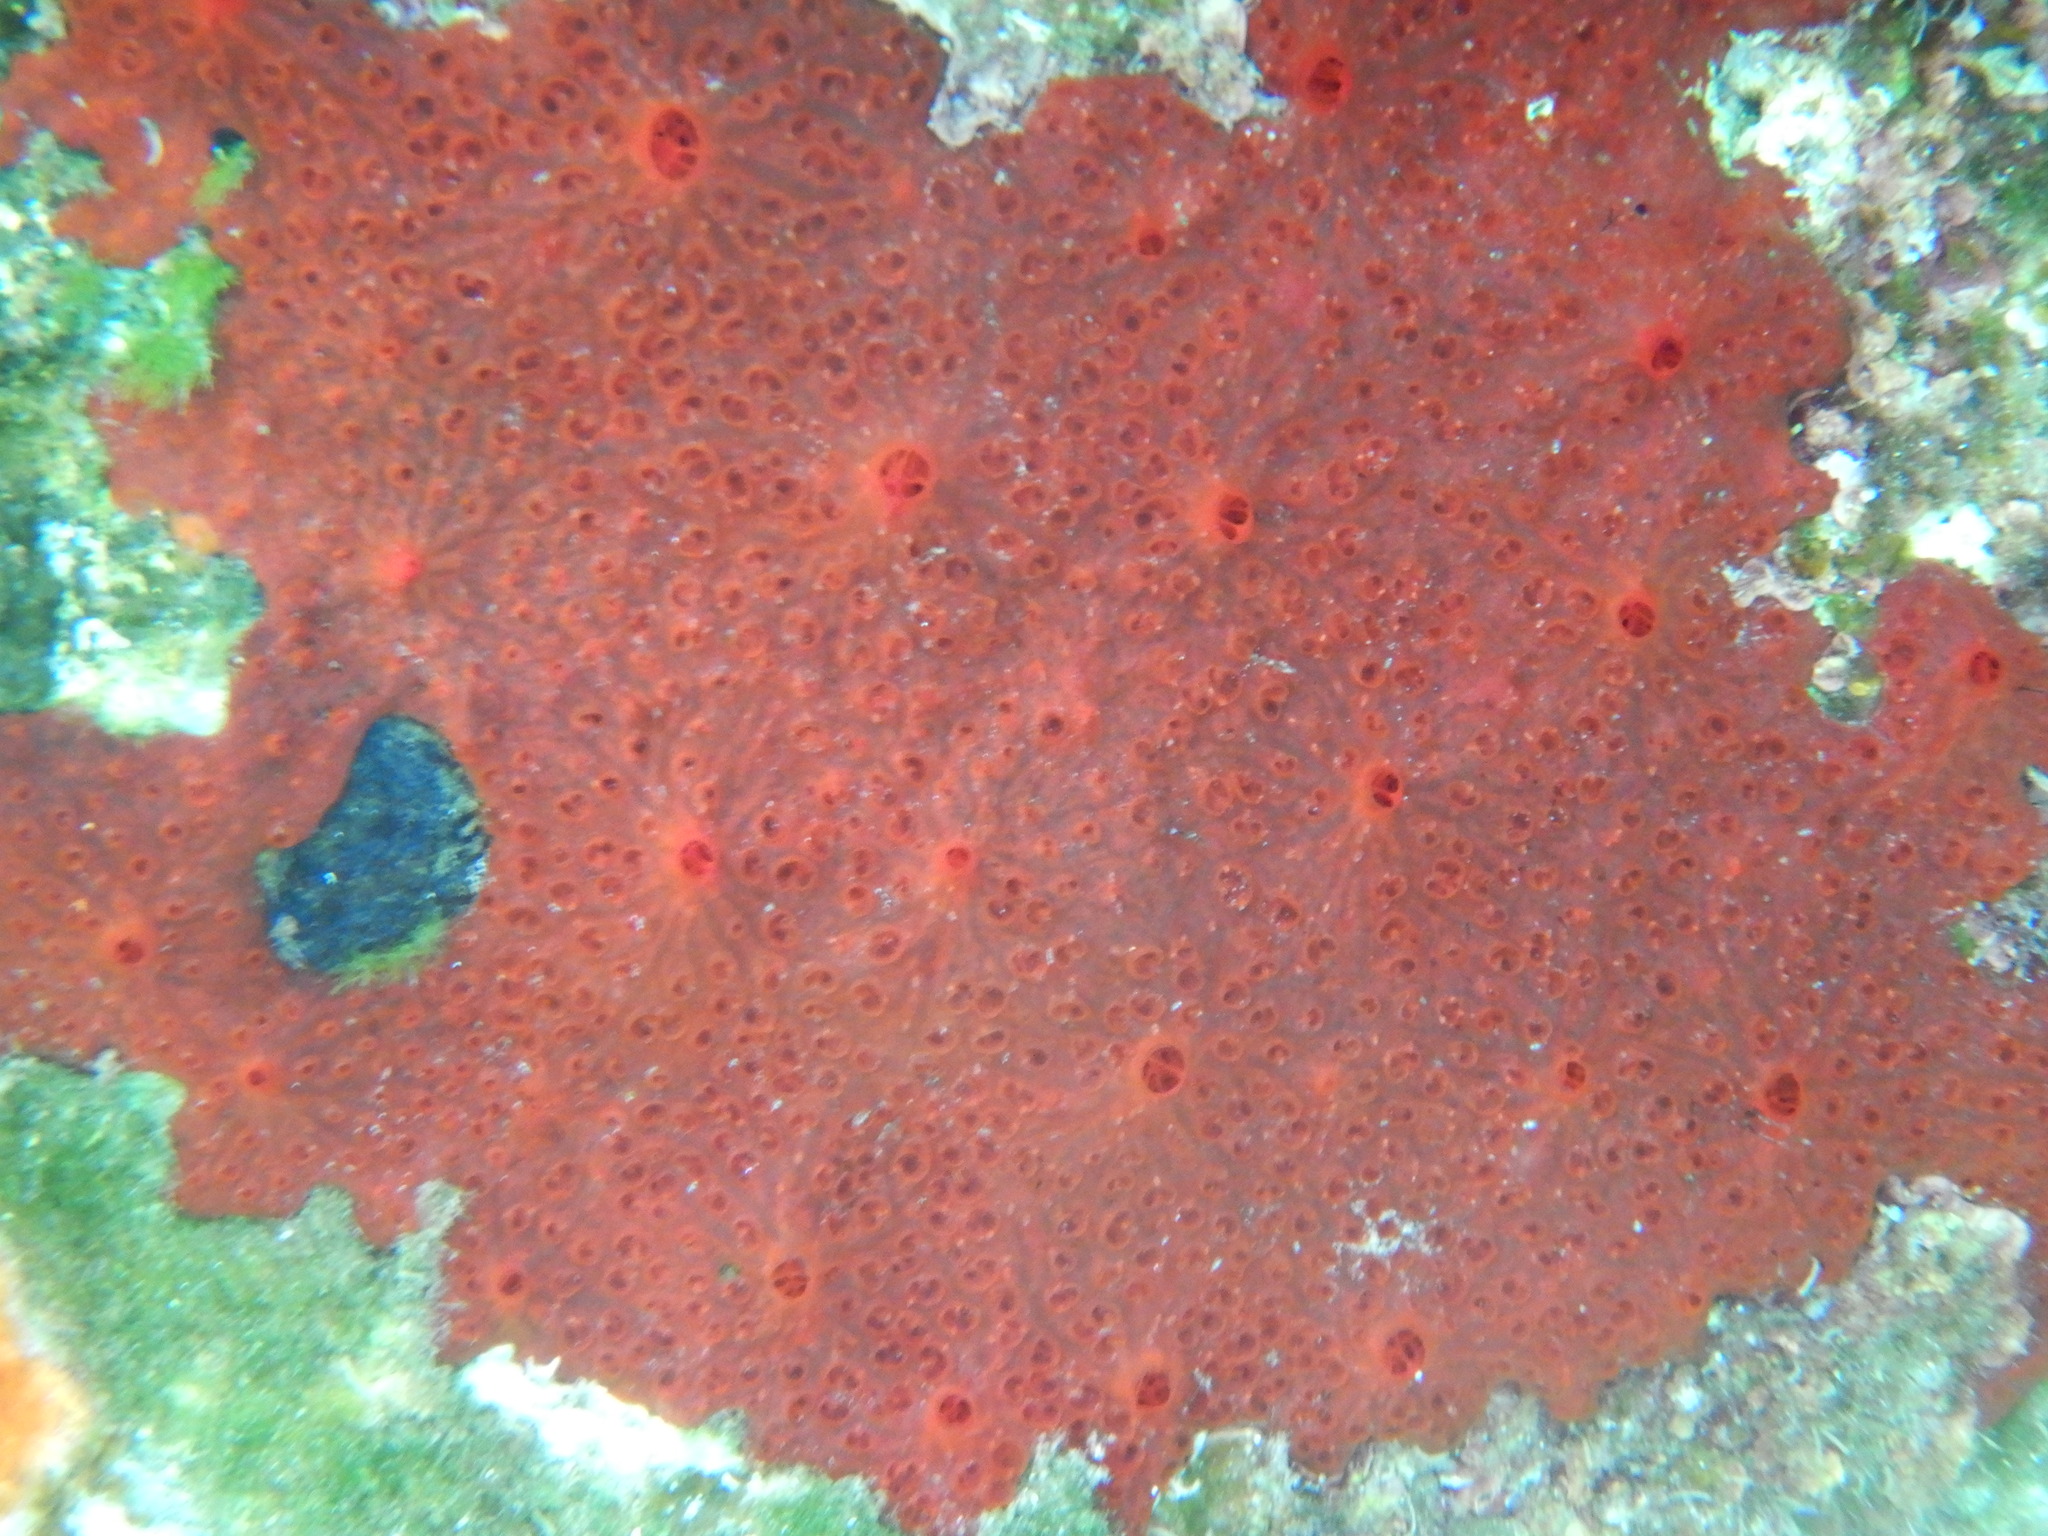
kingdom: Animalia
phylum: Porifera
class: Demospongiae
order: Poecilosclerida
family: Hymedesmiidae
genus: Phorbas
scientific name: Phorbas fictitius
